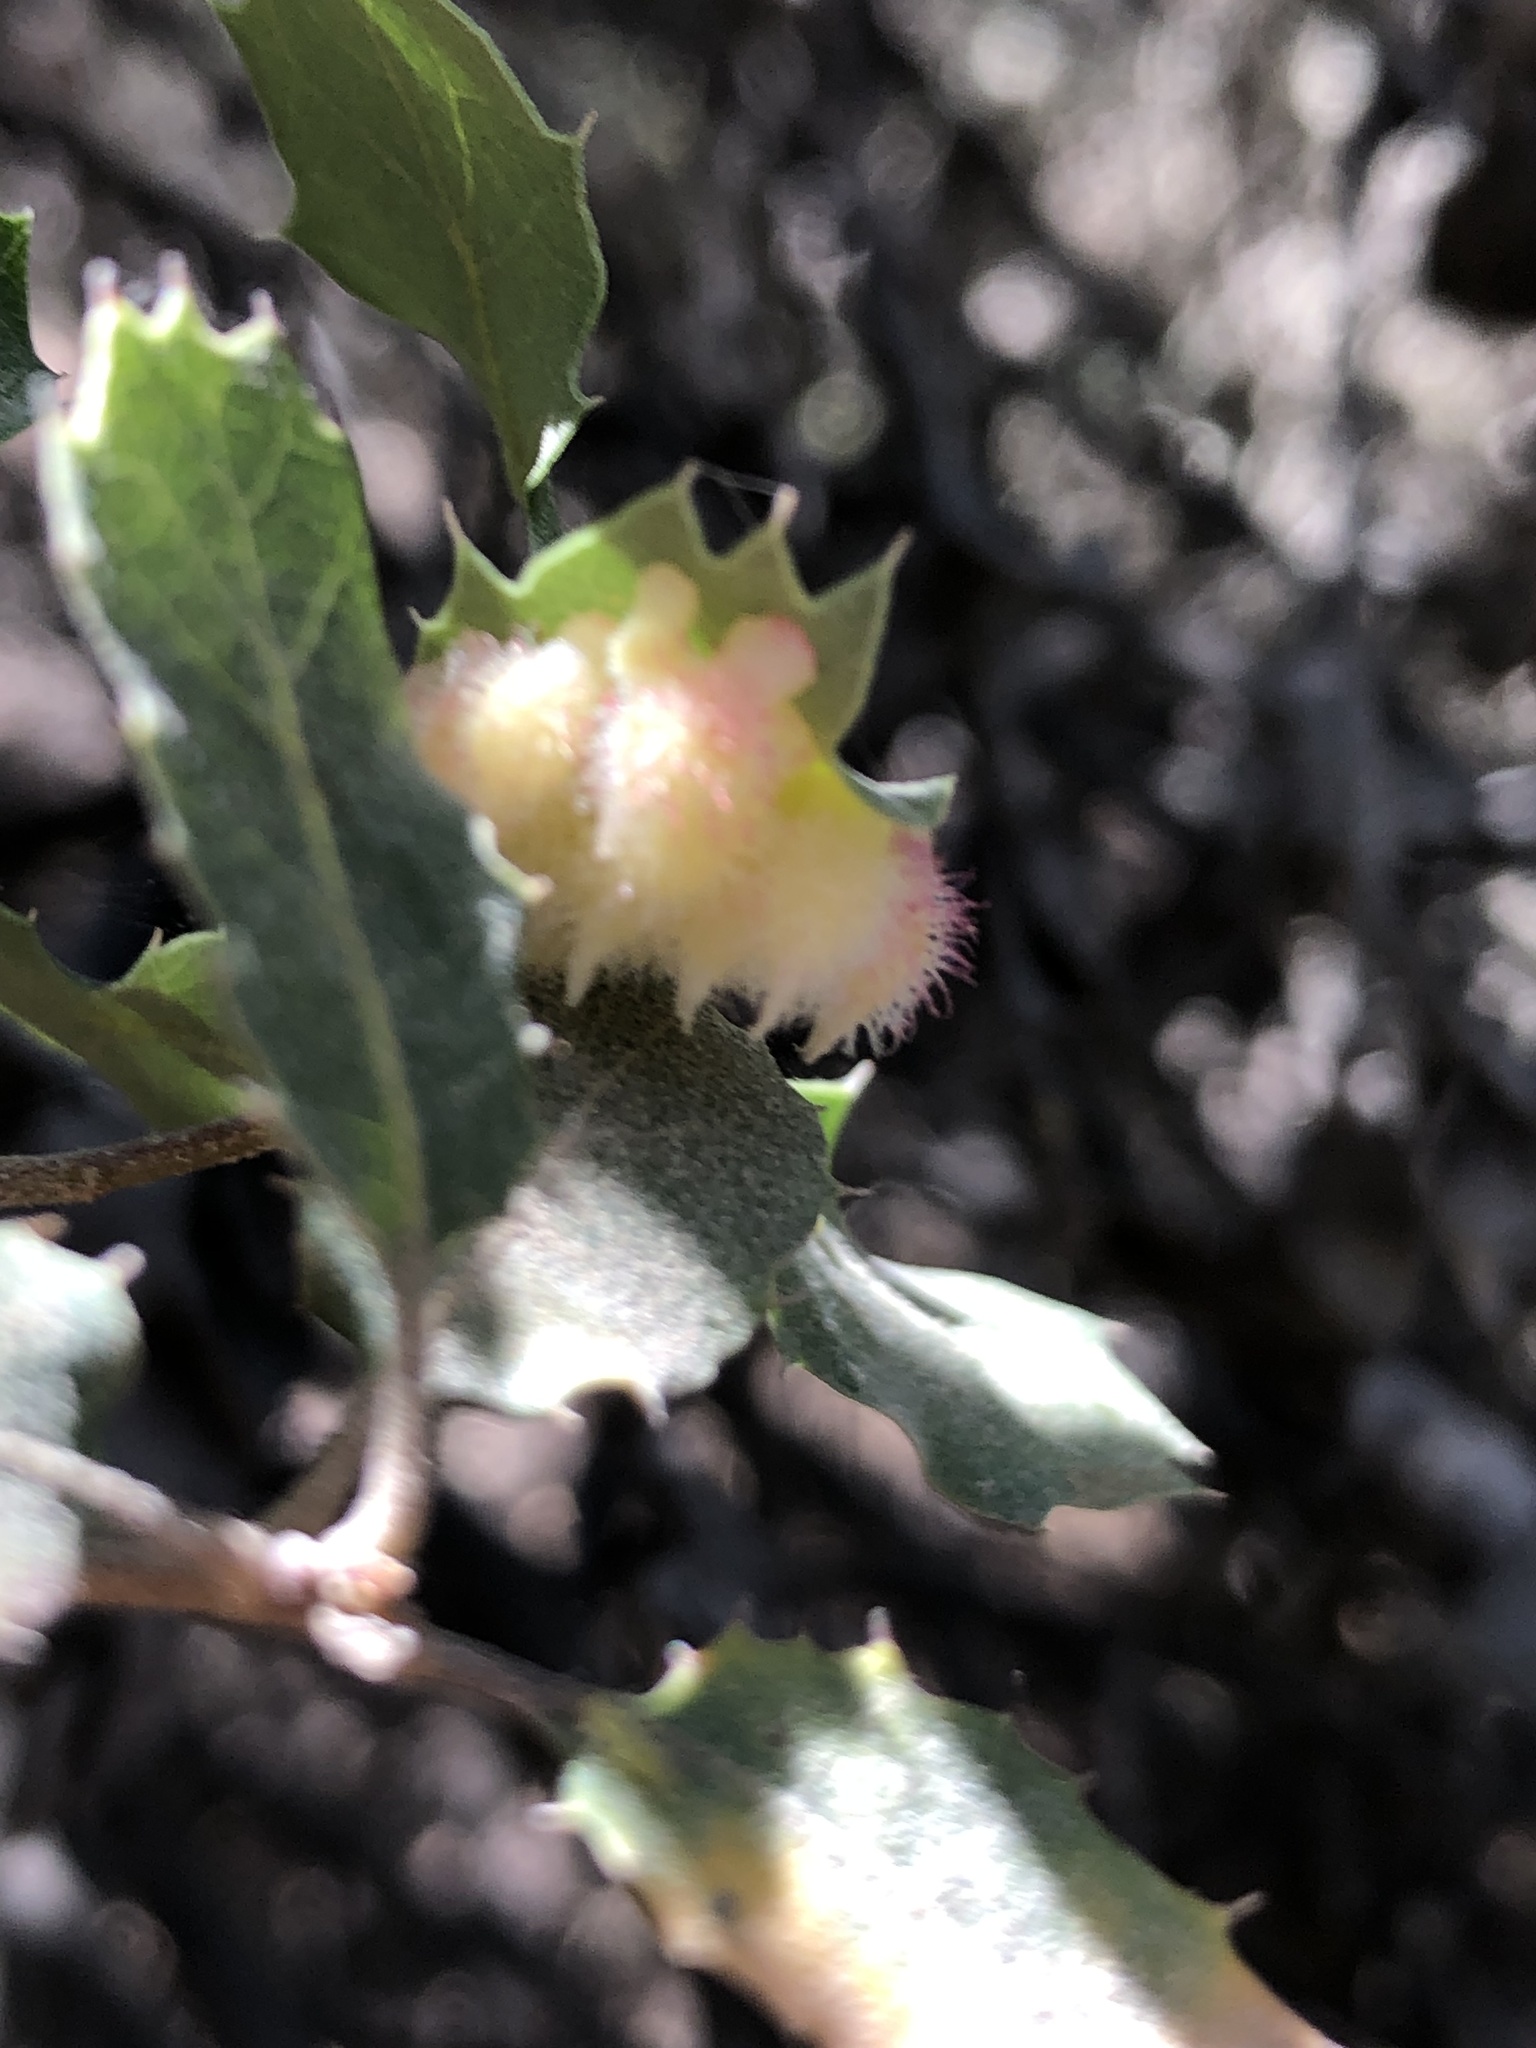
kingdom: Animalia
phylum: Arthropoda
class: Insecta
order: Hymenoptera
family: Cynipidae
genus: Andricus
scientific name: Andricus
